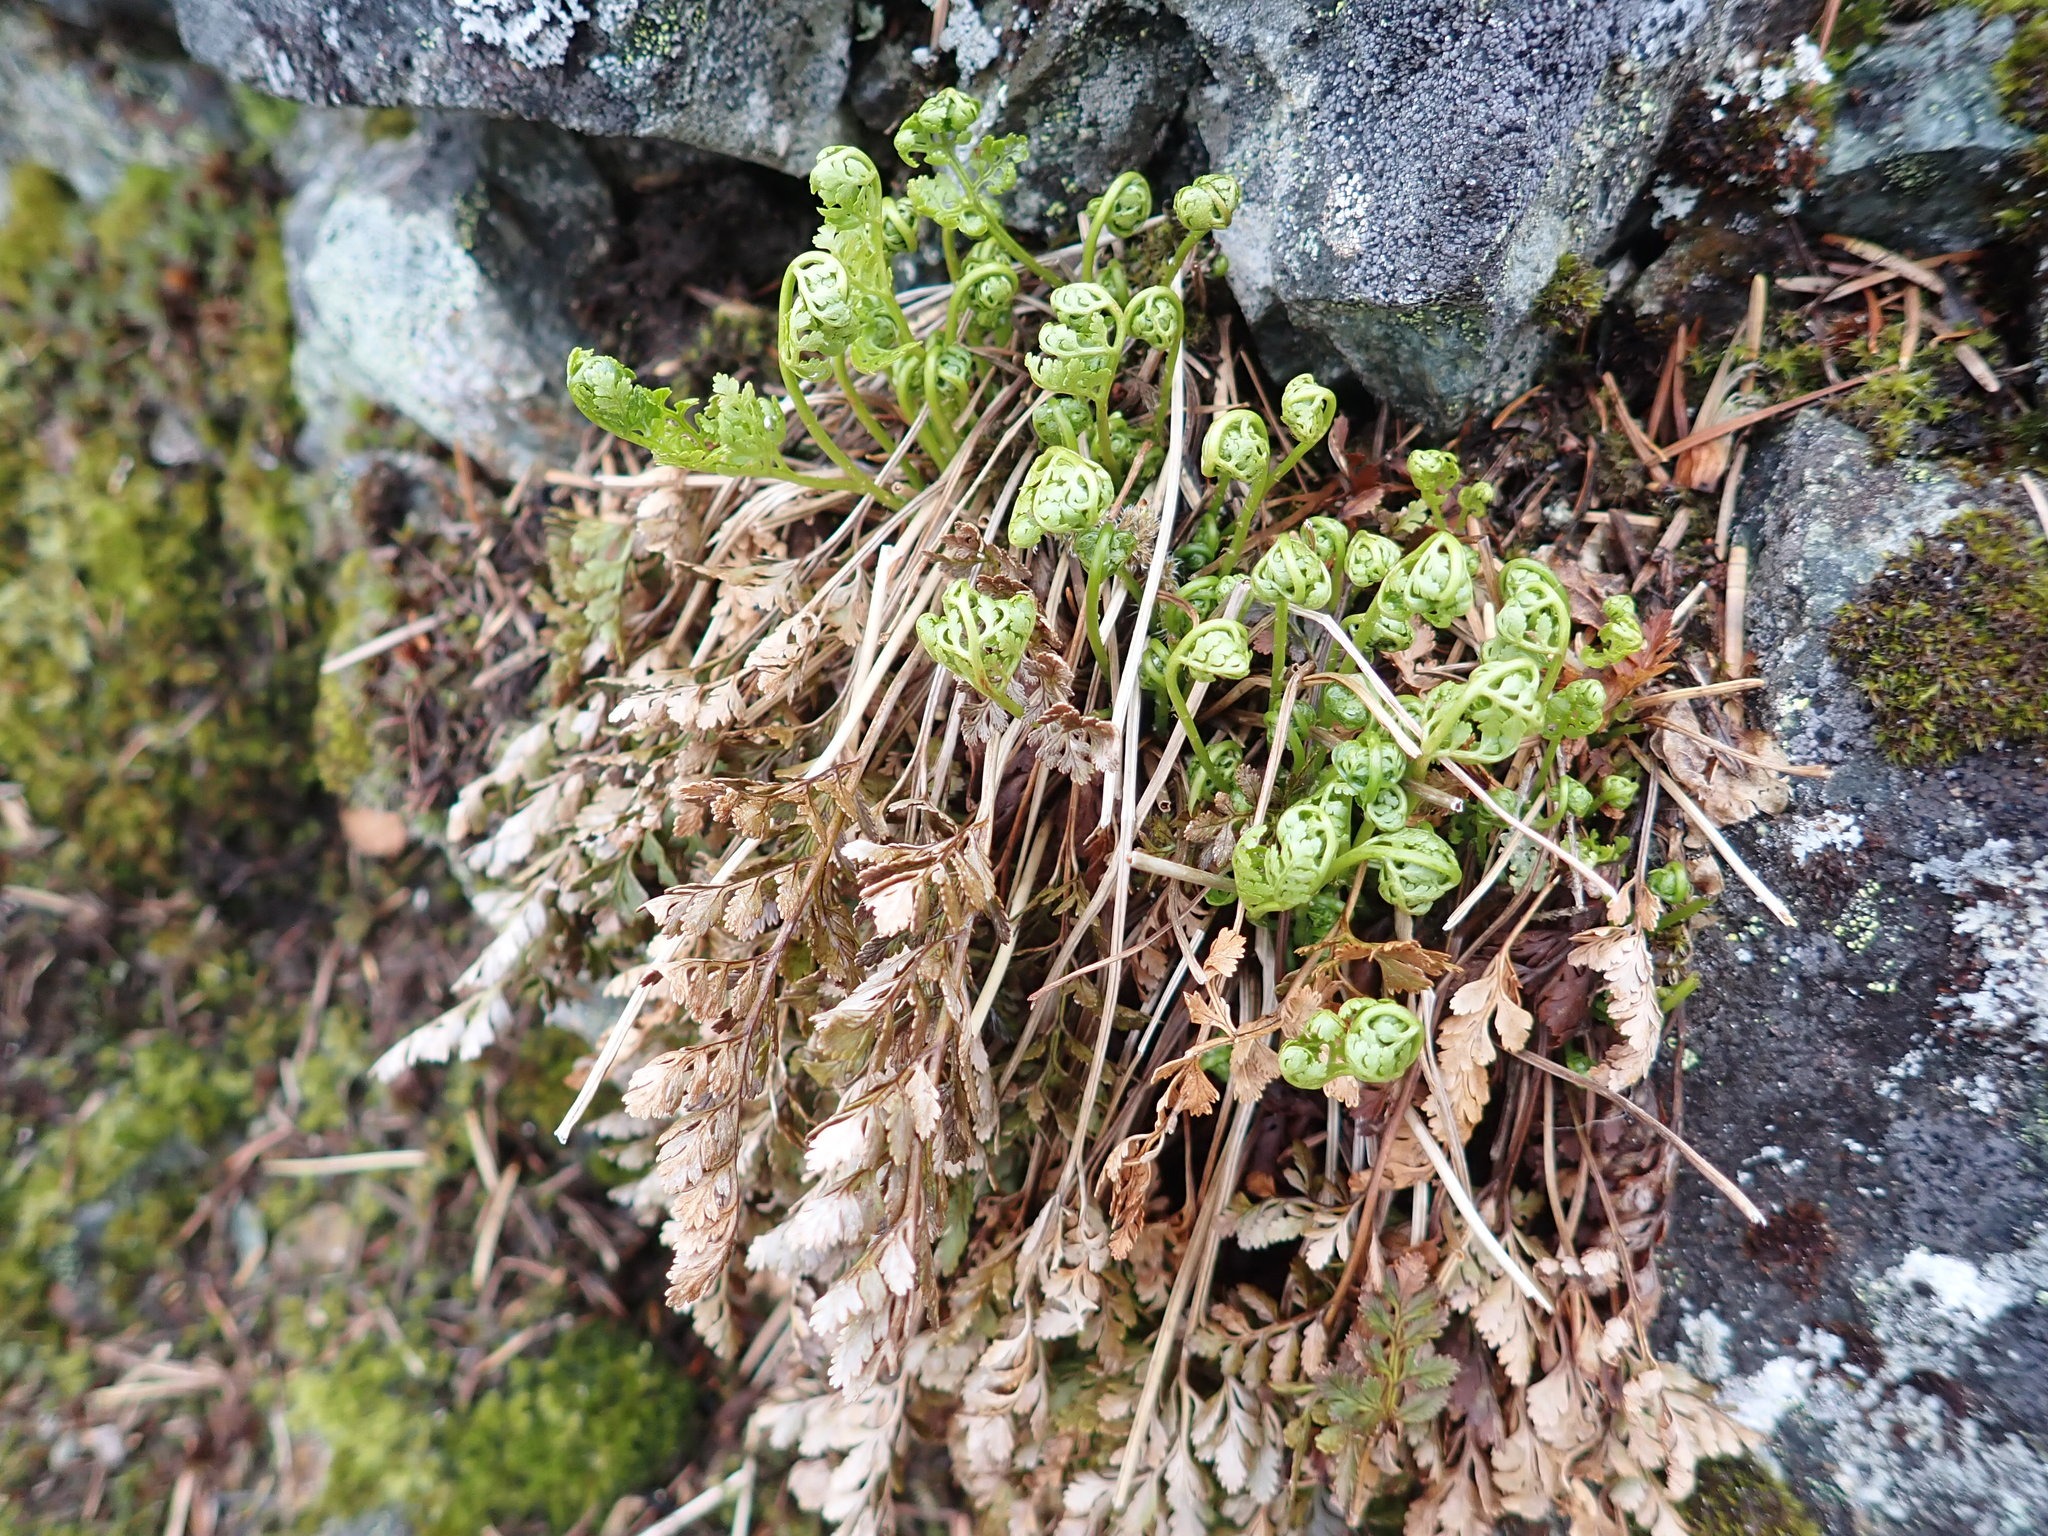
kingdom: Plantae
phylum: Tracheophyta
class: Polypodiopsida
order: Polypodiales
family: Pteridaceae
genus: Cryptogramma
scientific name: Cryptogramma acrostichoides
